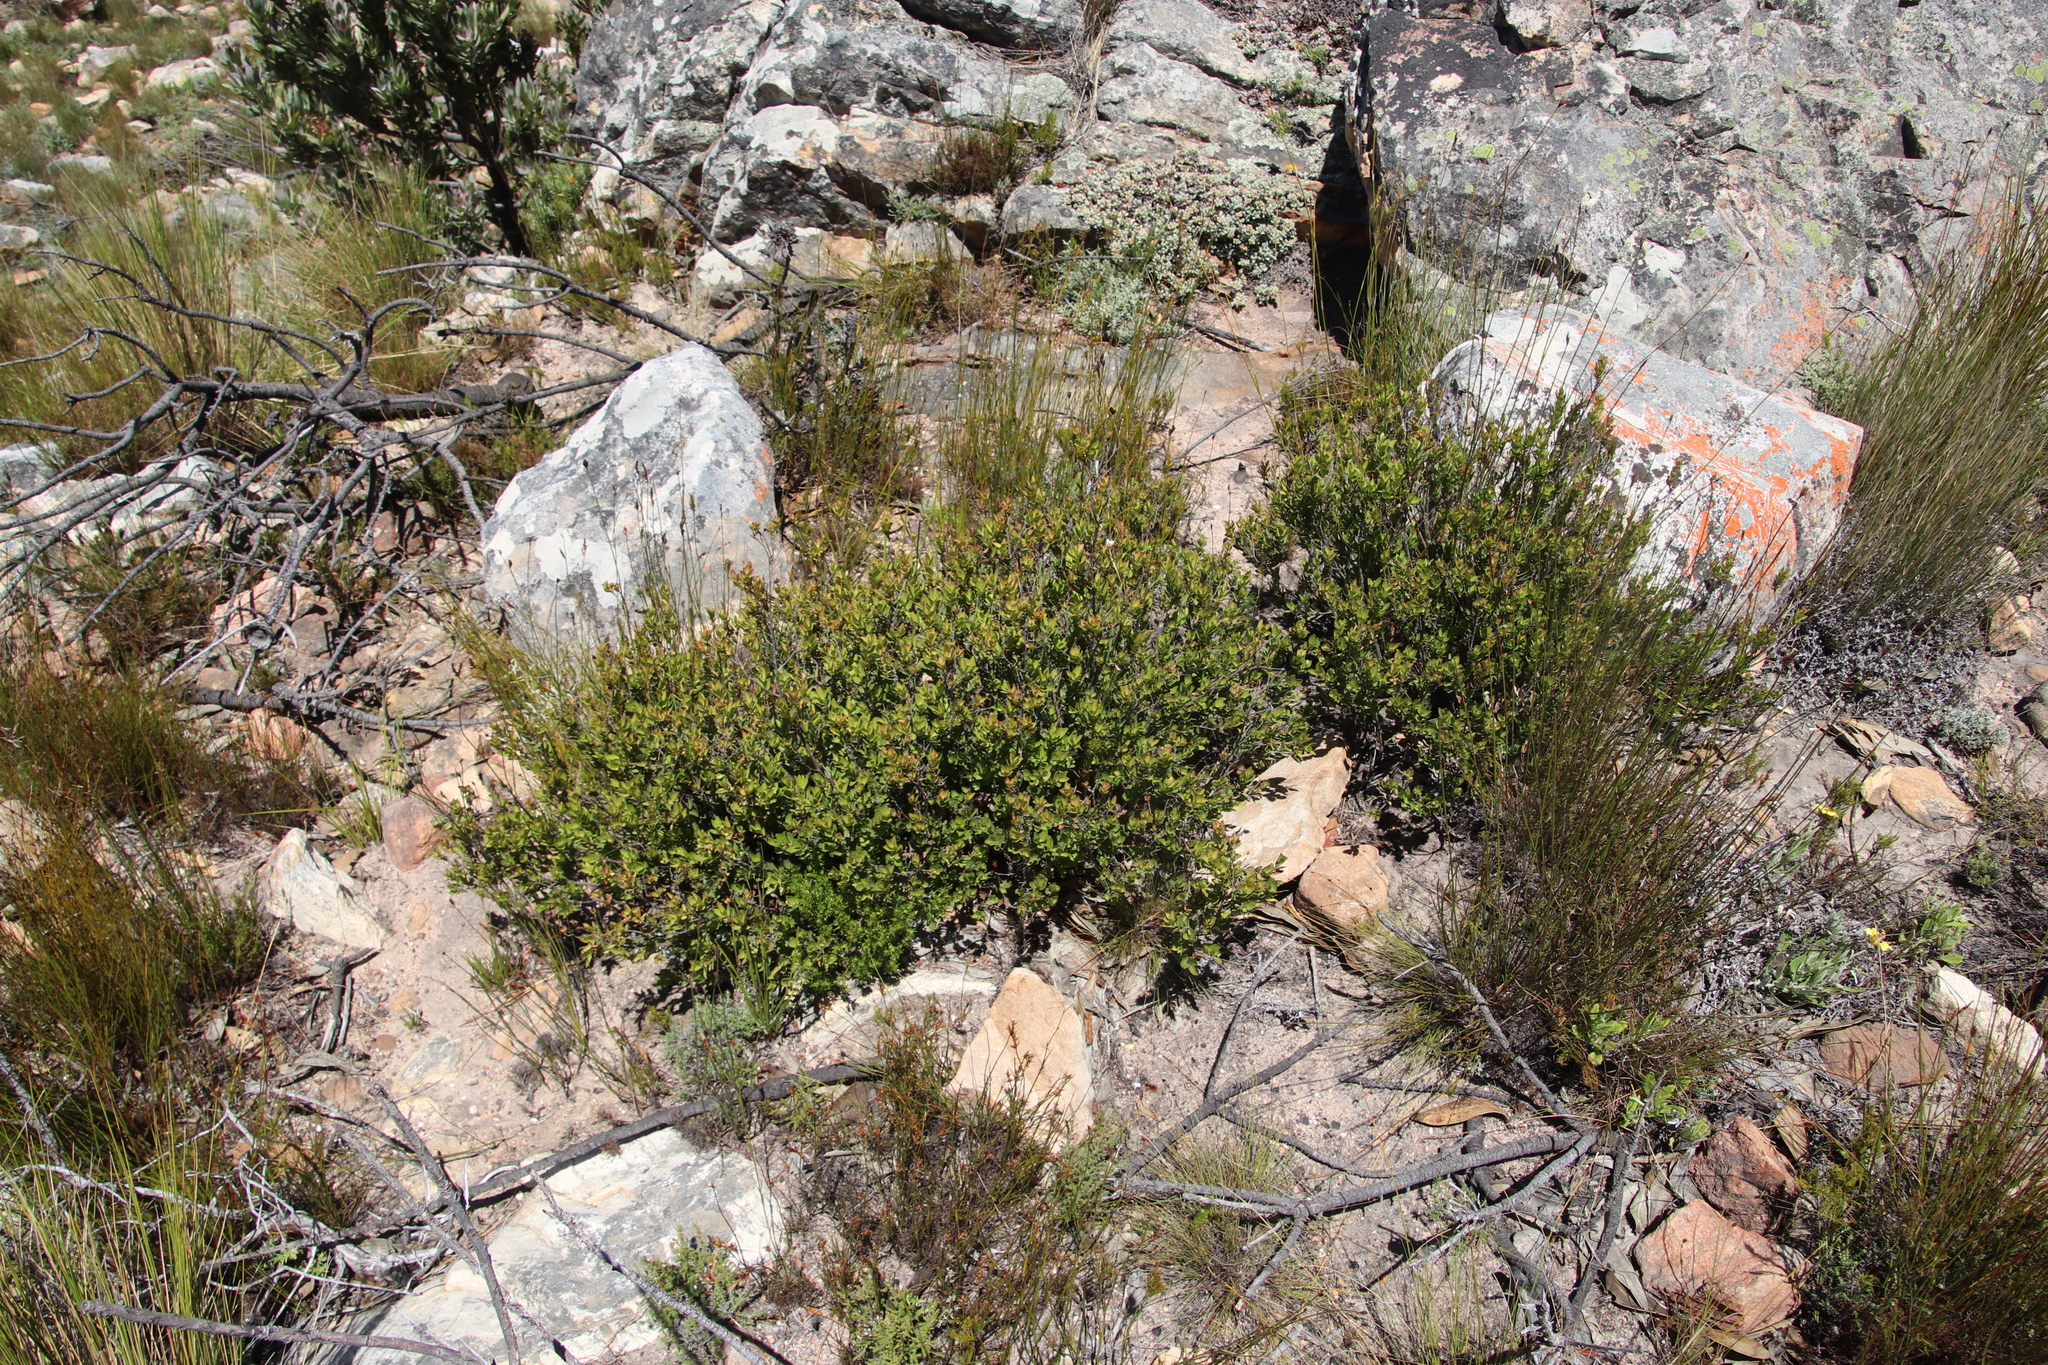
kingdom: Plantae
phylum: Tracheophyta
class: Magnoliopsida
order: Ericales
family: Ebenaceae
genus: Diospyros
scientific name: Diospyros glabra
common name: Fynbos star apple
